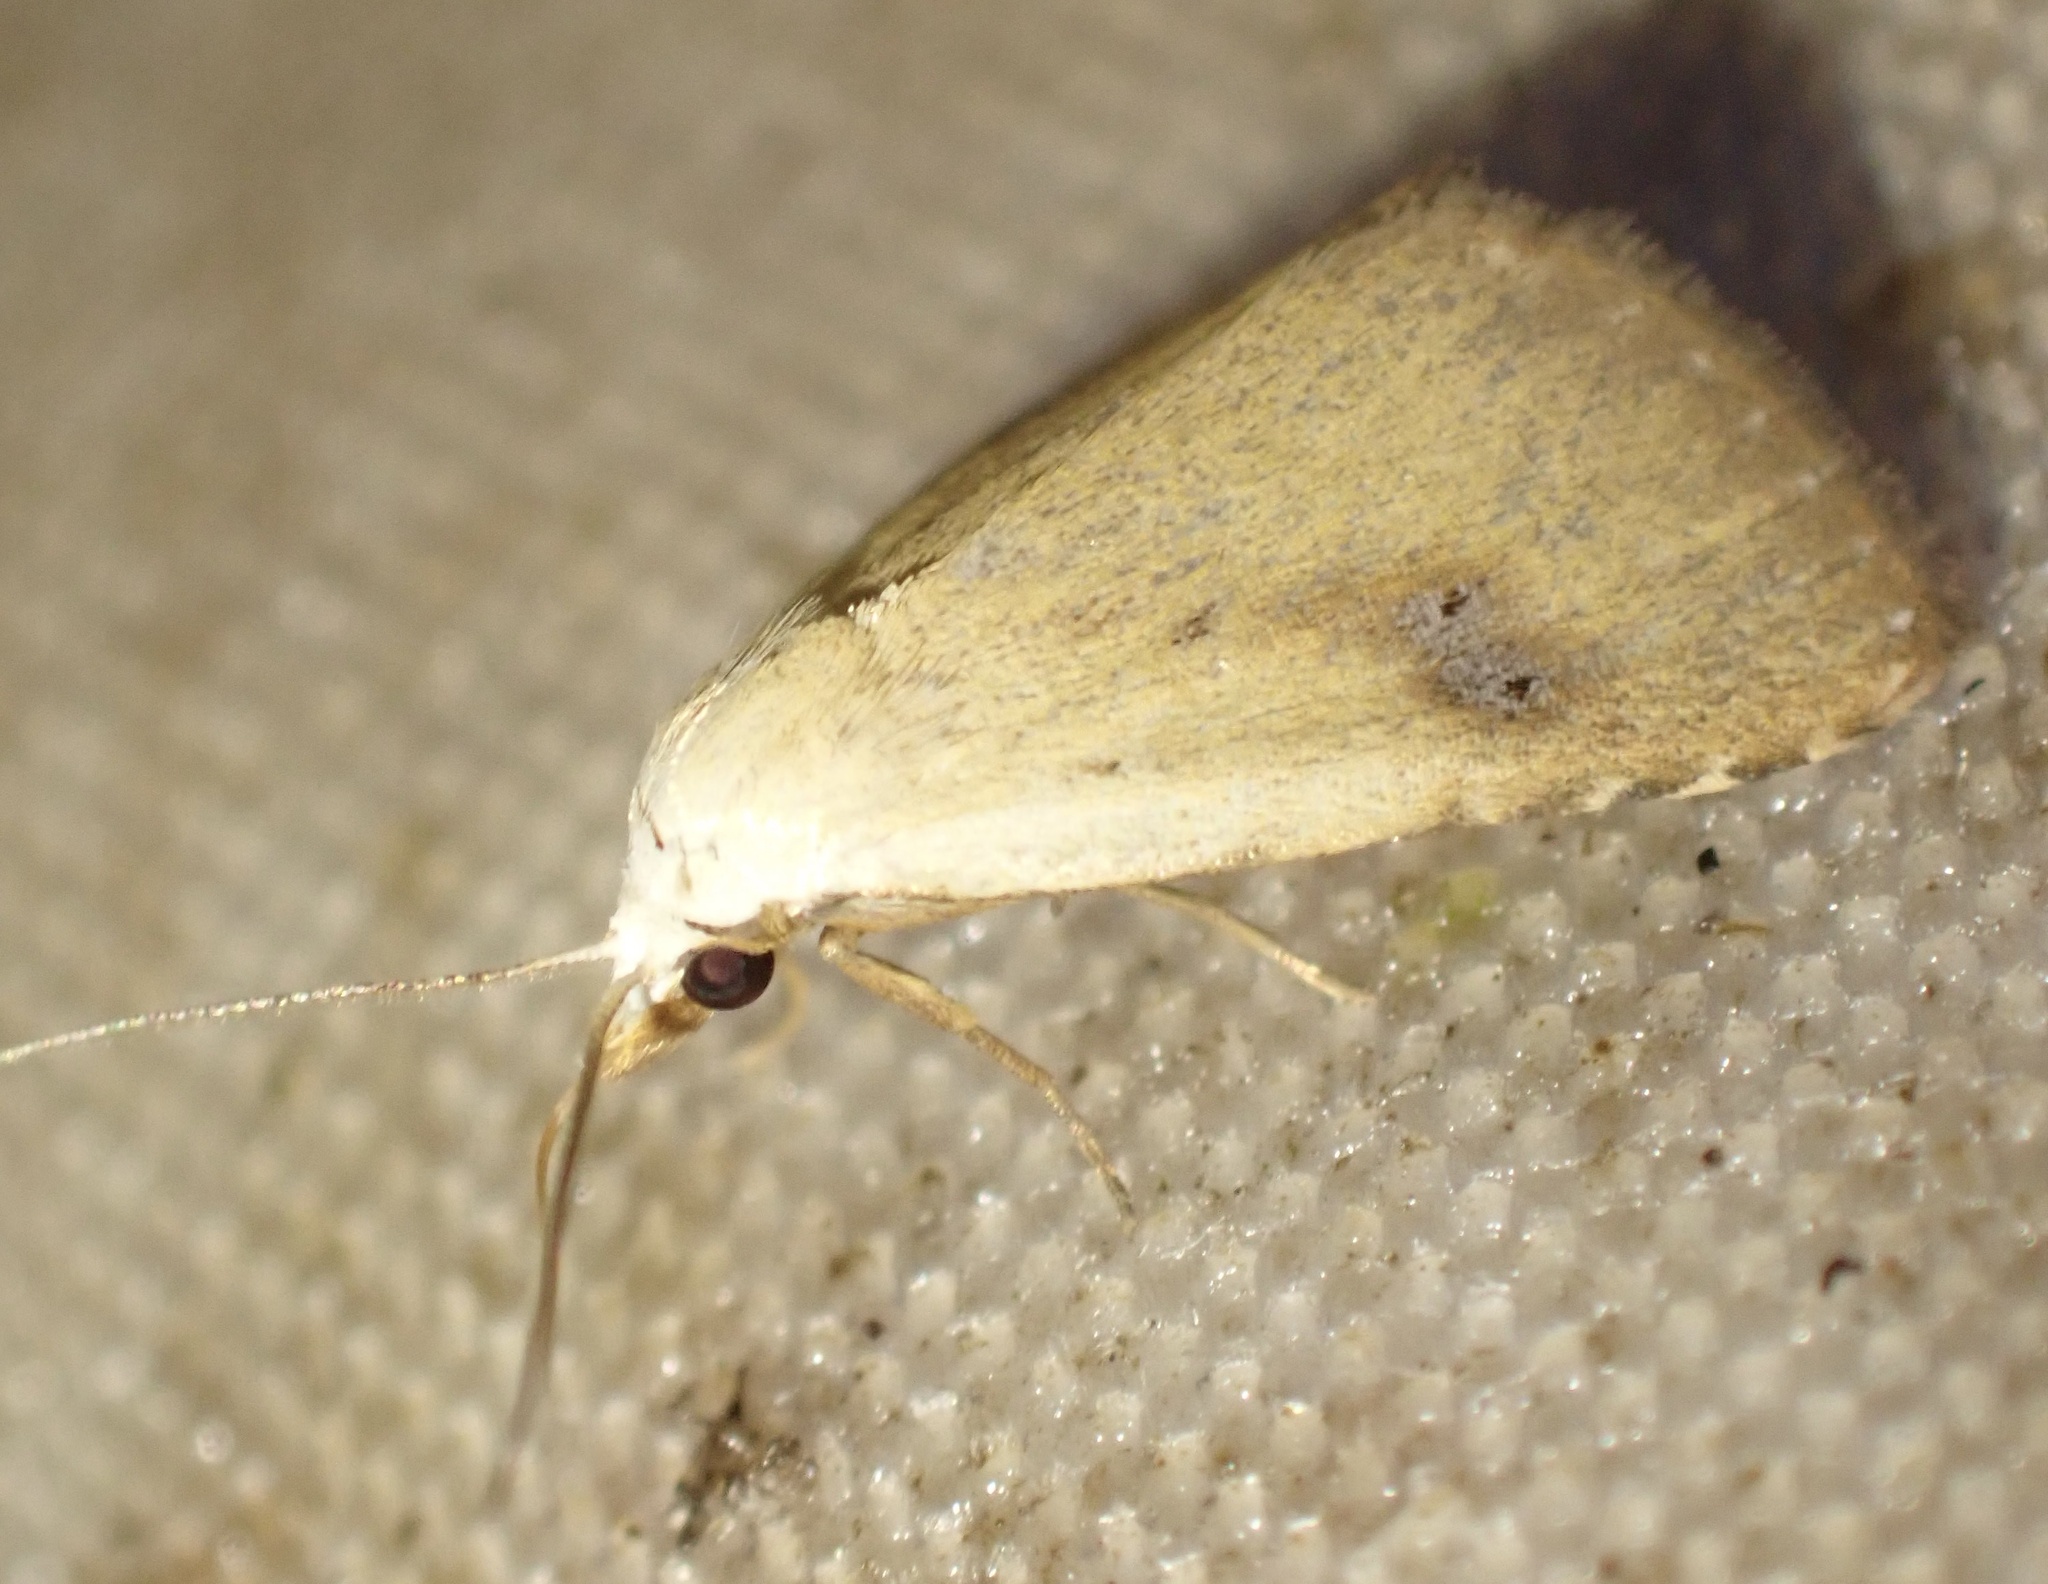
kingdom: Animalia
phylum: Arthropoda
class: Insecta
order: Lepidoptera
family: Erebidae
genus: Rivula
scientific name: Rivula sericealis
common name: Straw dot
